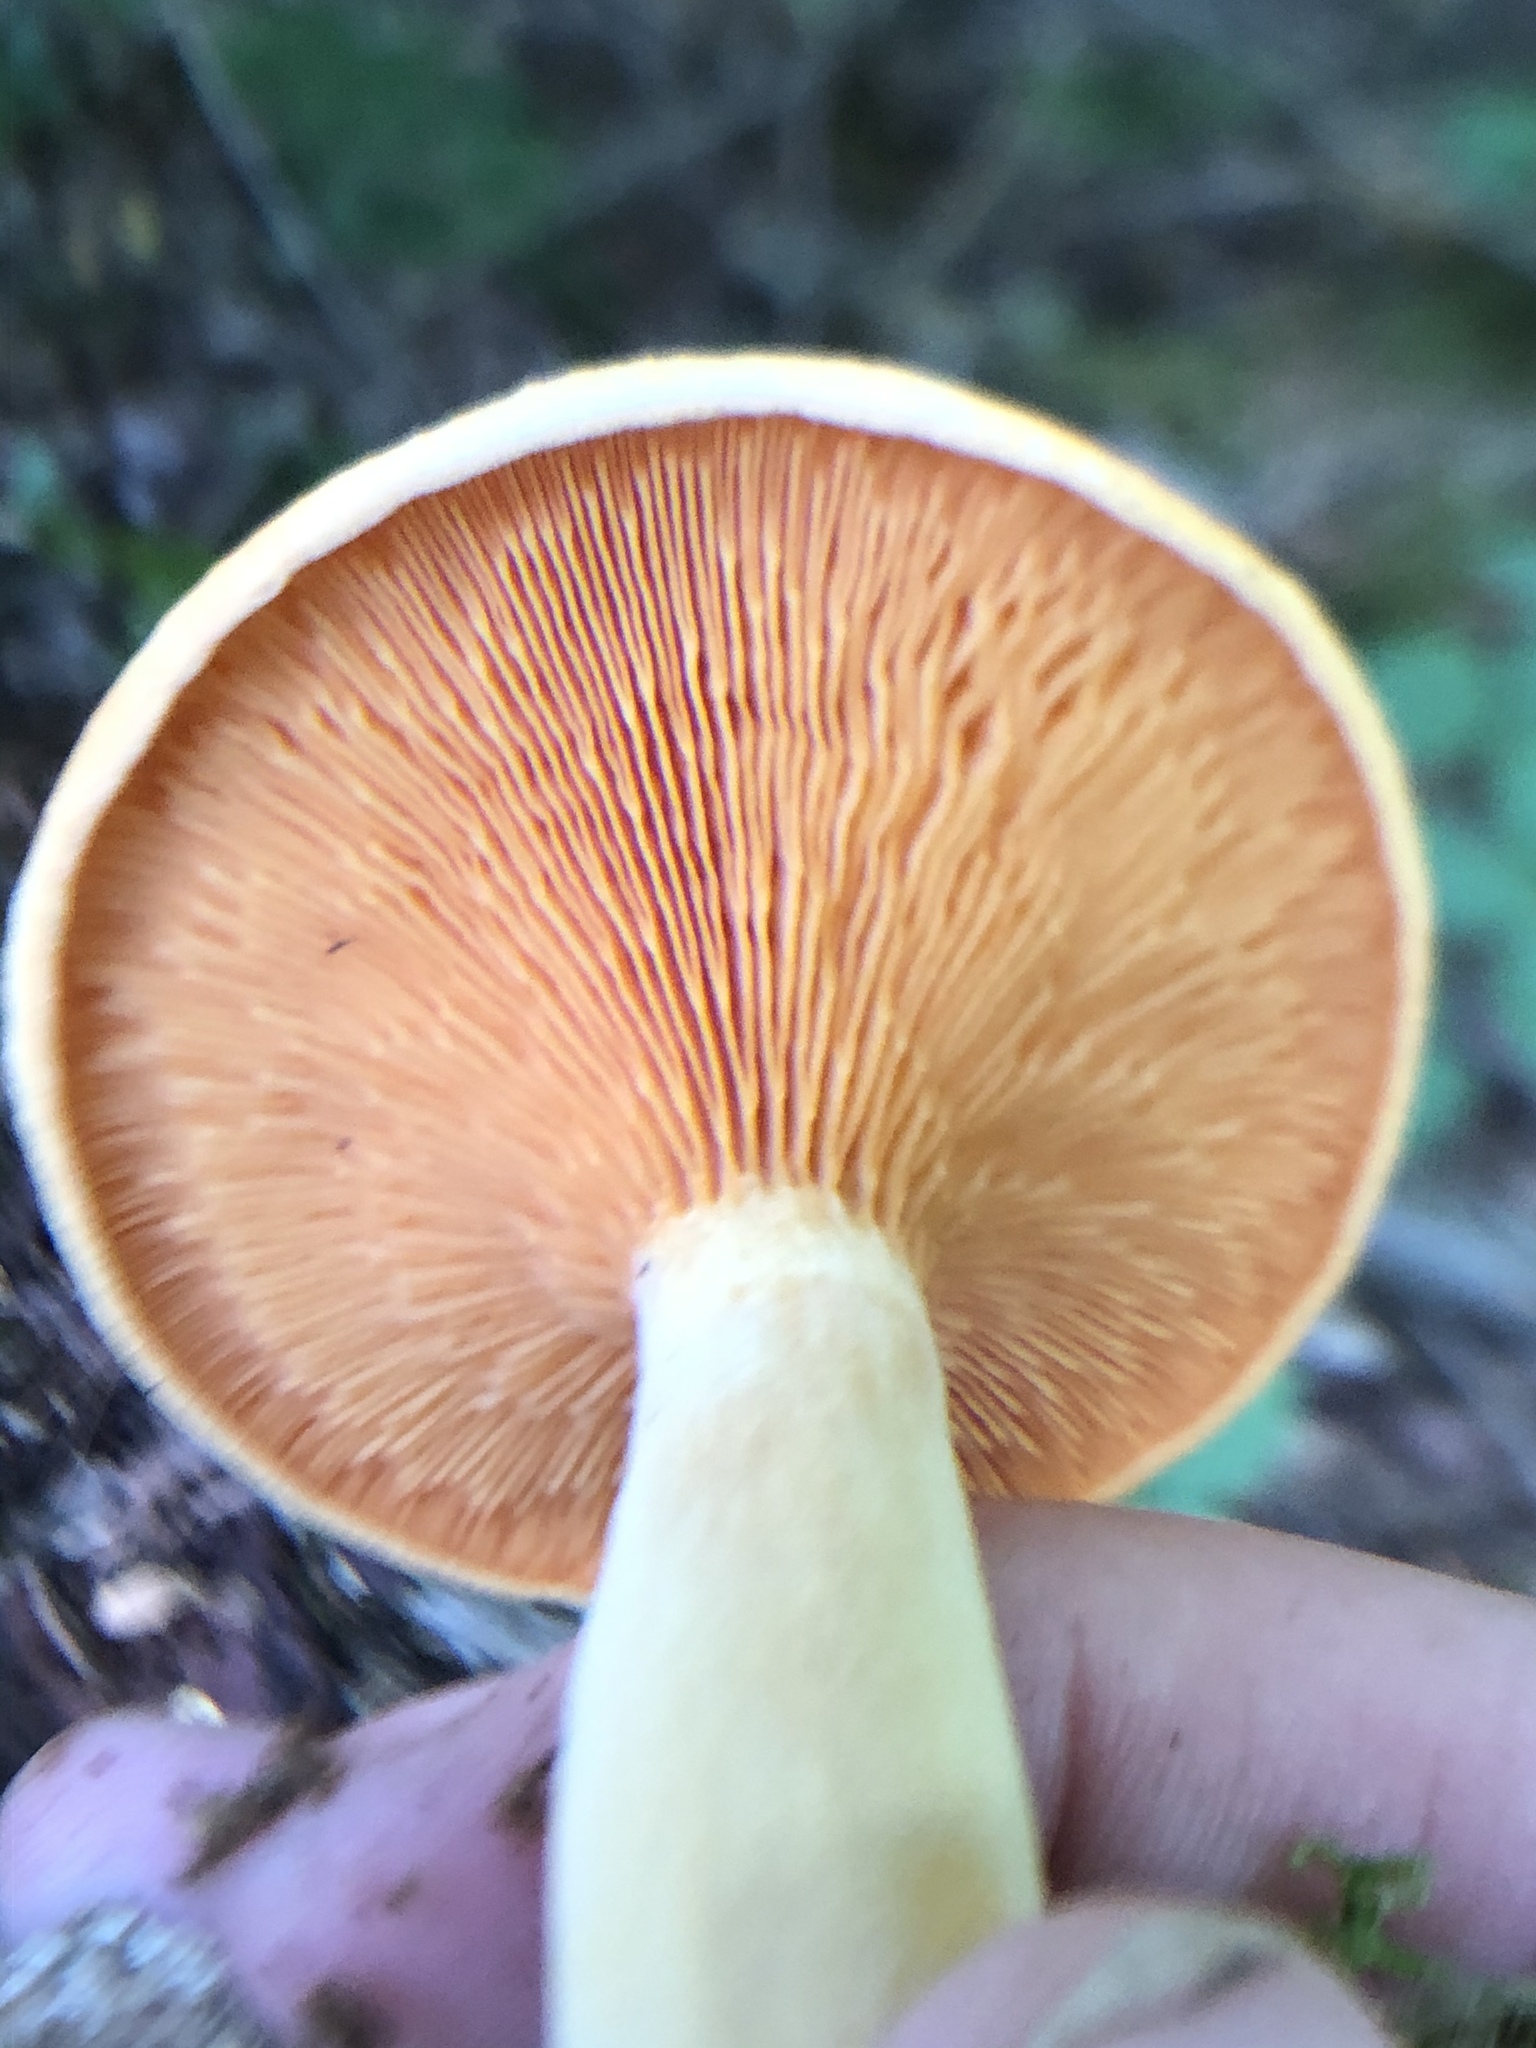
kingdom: Fungi
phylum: Basidiomycota
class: Agaricomycetes
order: Boletales
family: Hygrophoropsidaceae
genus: Hygrophoropsis
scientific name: Hygrophoropsis aurantiaca
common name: False chanterelle
